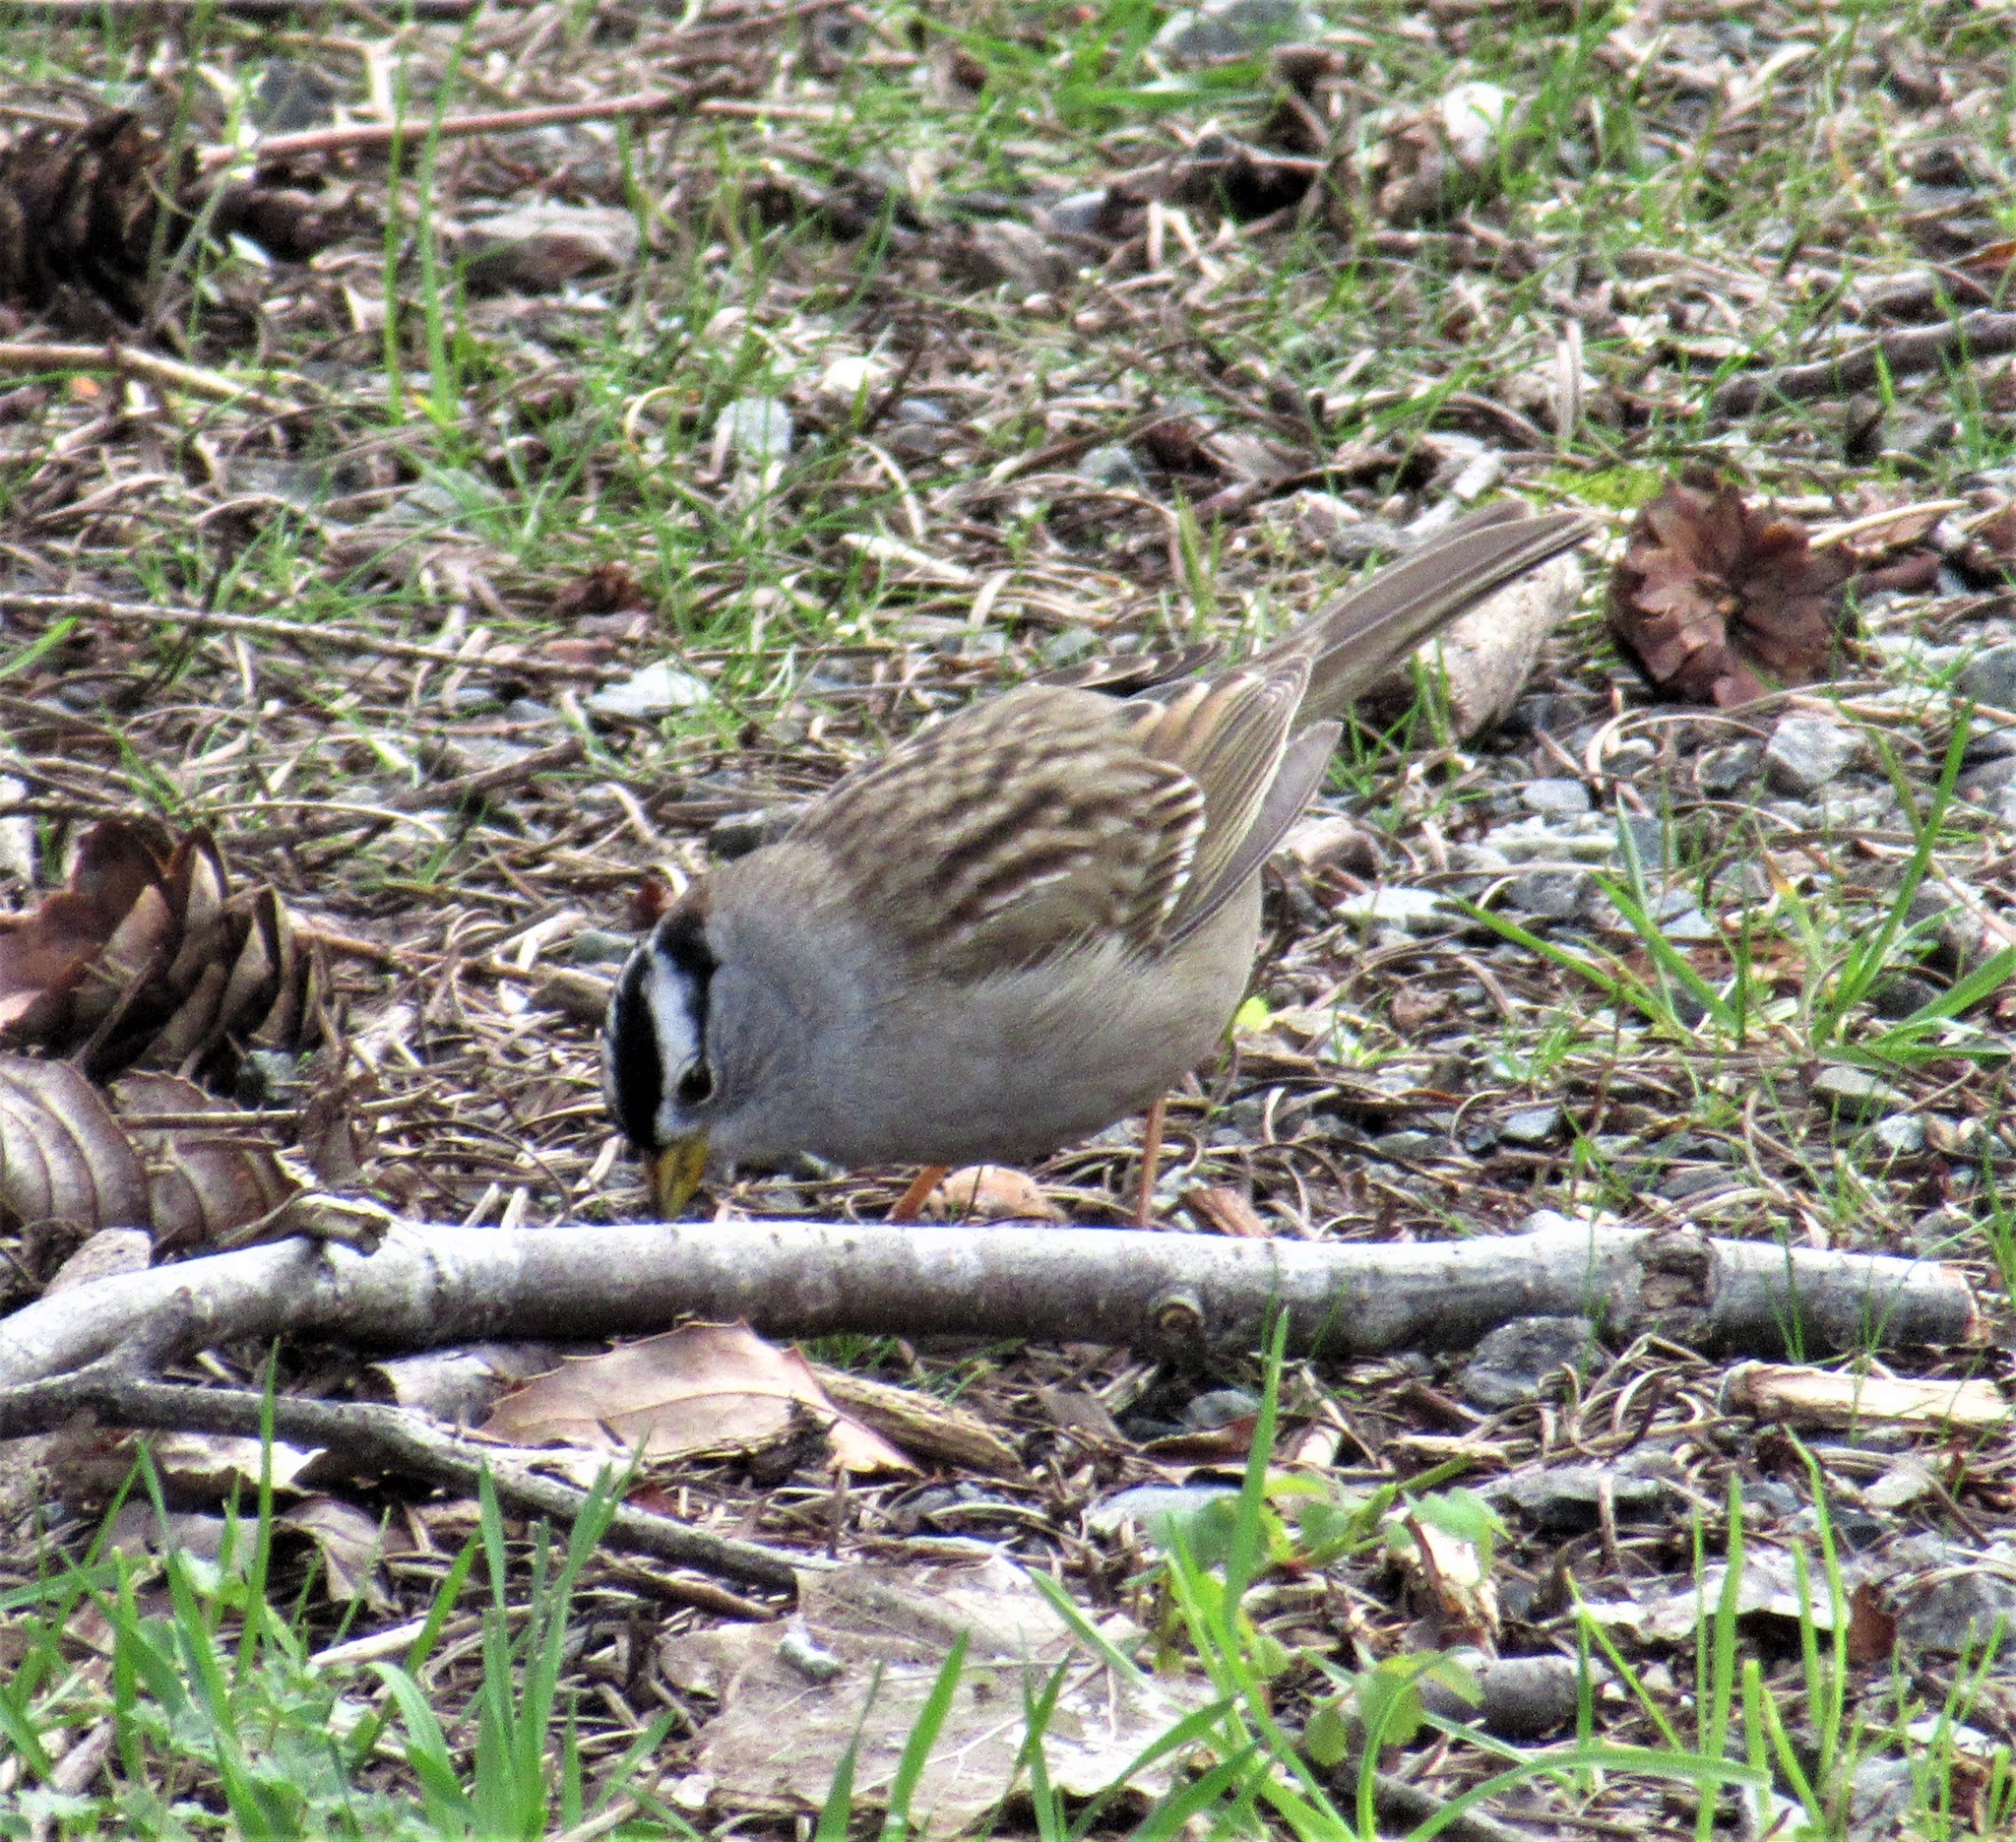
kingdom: Animalia
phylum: Chordata
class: Aves
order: Passeriformes
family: Passerellidae
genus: Zonotrichia
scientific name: Zonotrichia leucophrys
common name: White-crowned sparrow
